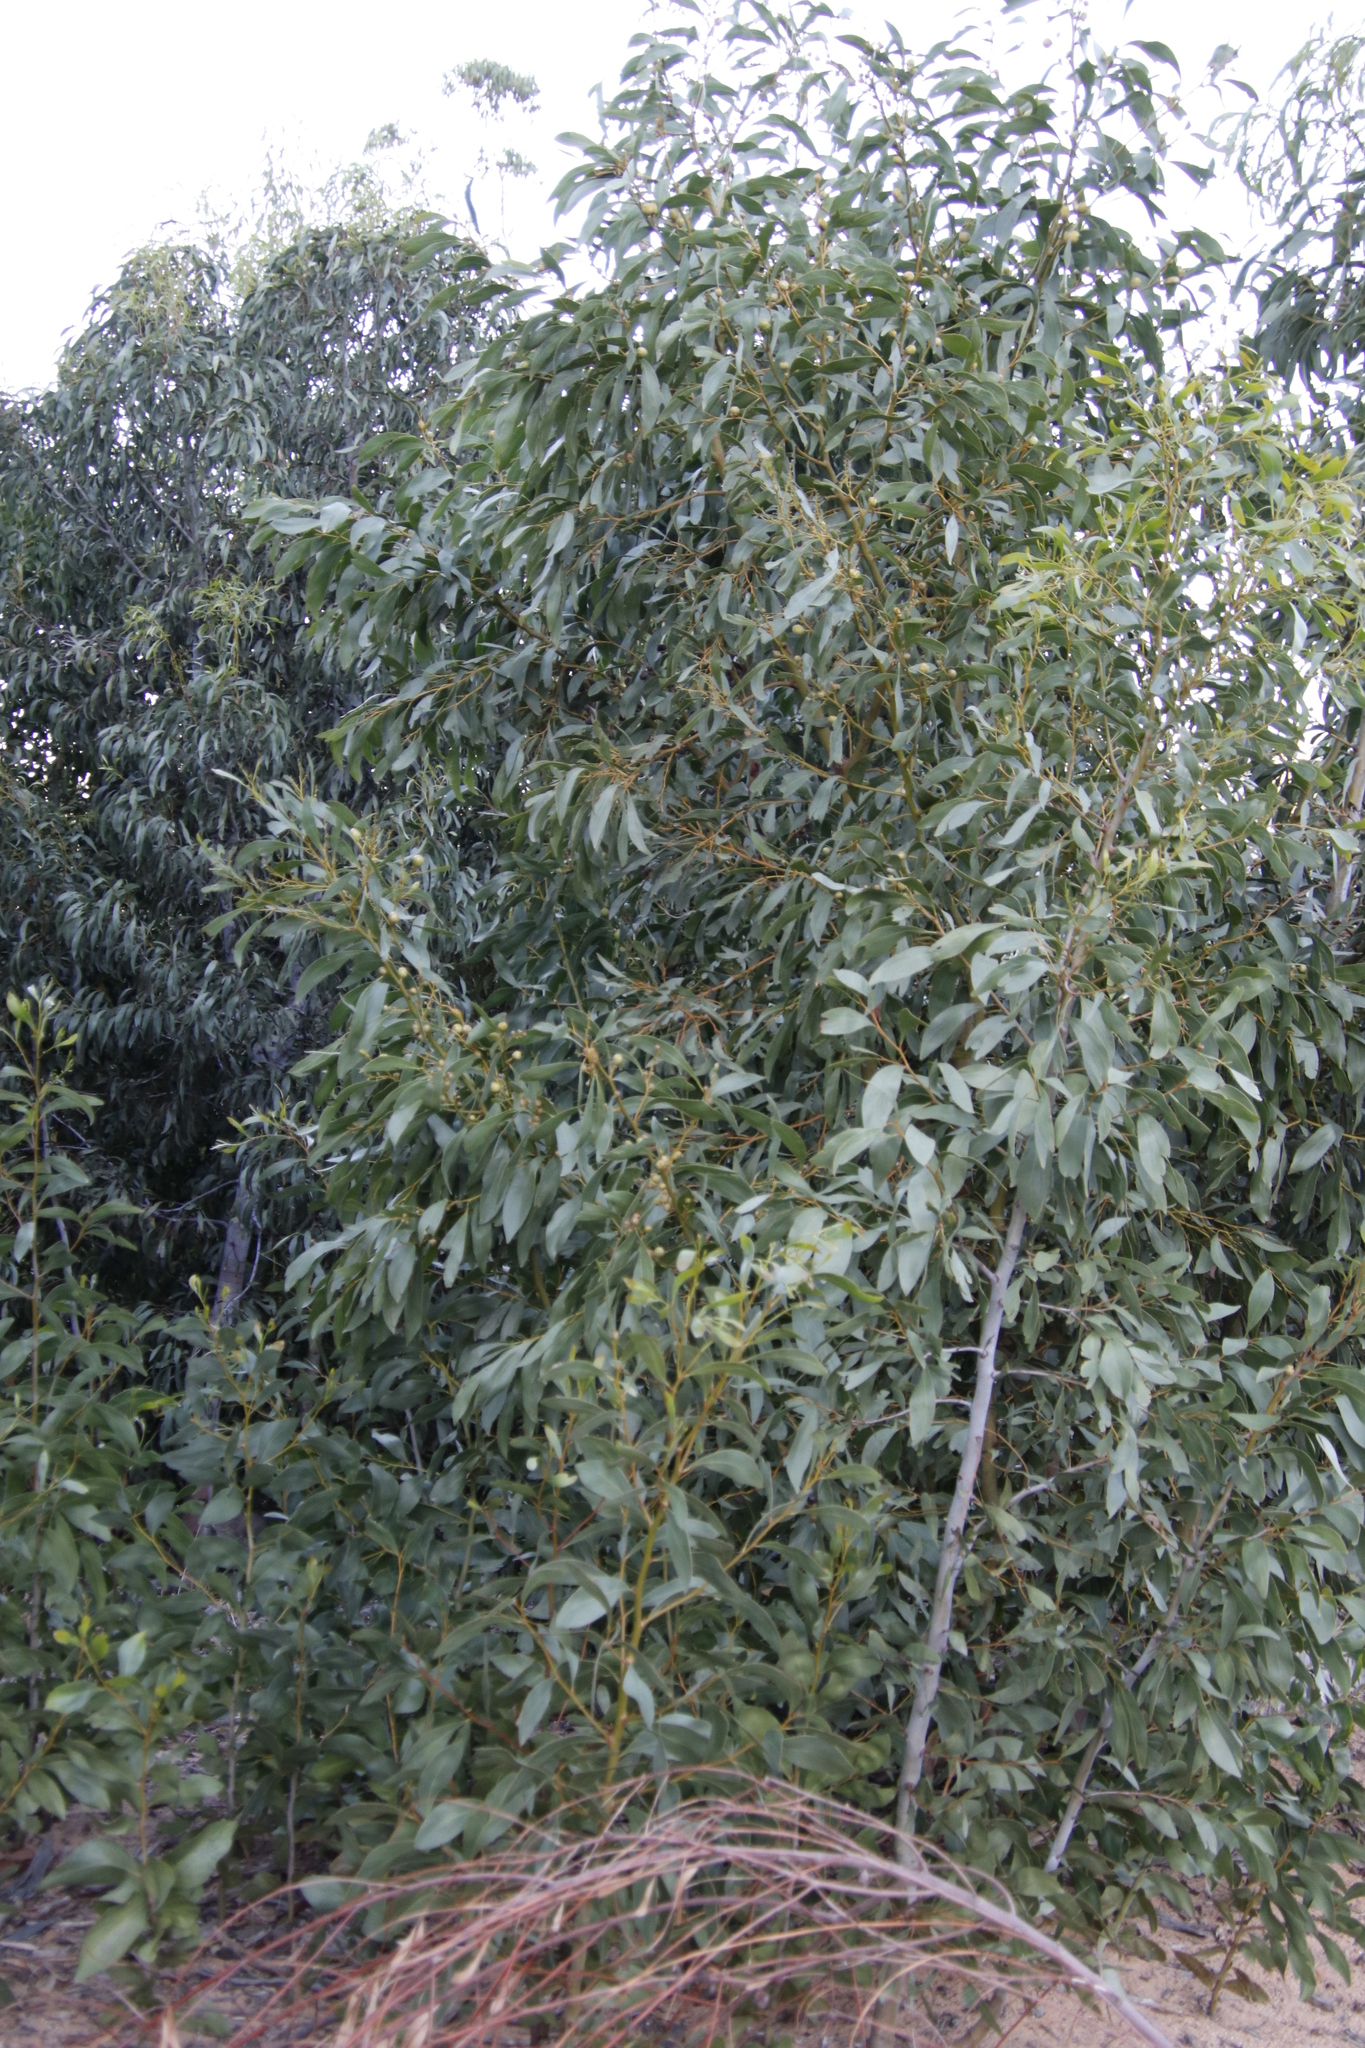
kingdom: Plantae
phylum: Tracheophyta
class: Magnoliopsida
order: Fabales
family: Fabaceae
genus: Acacia
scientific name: Acacia pycnantha
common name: Golden wattle
